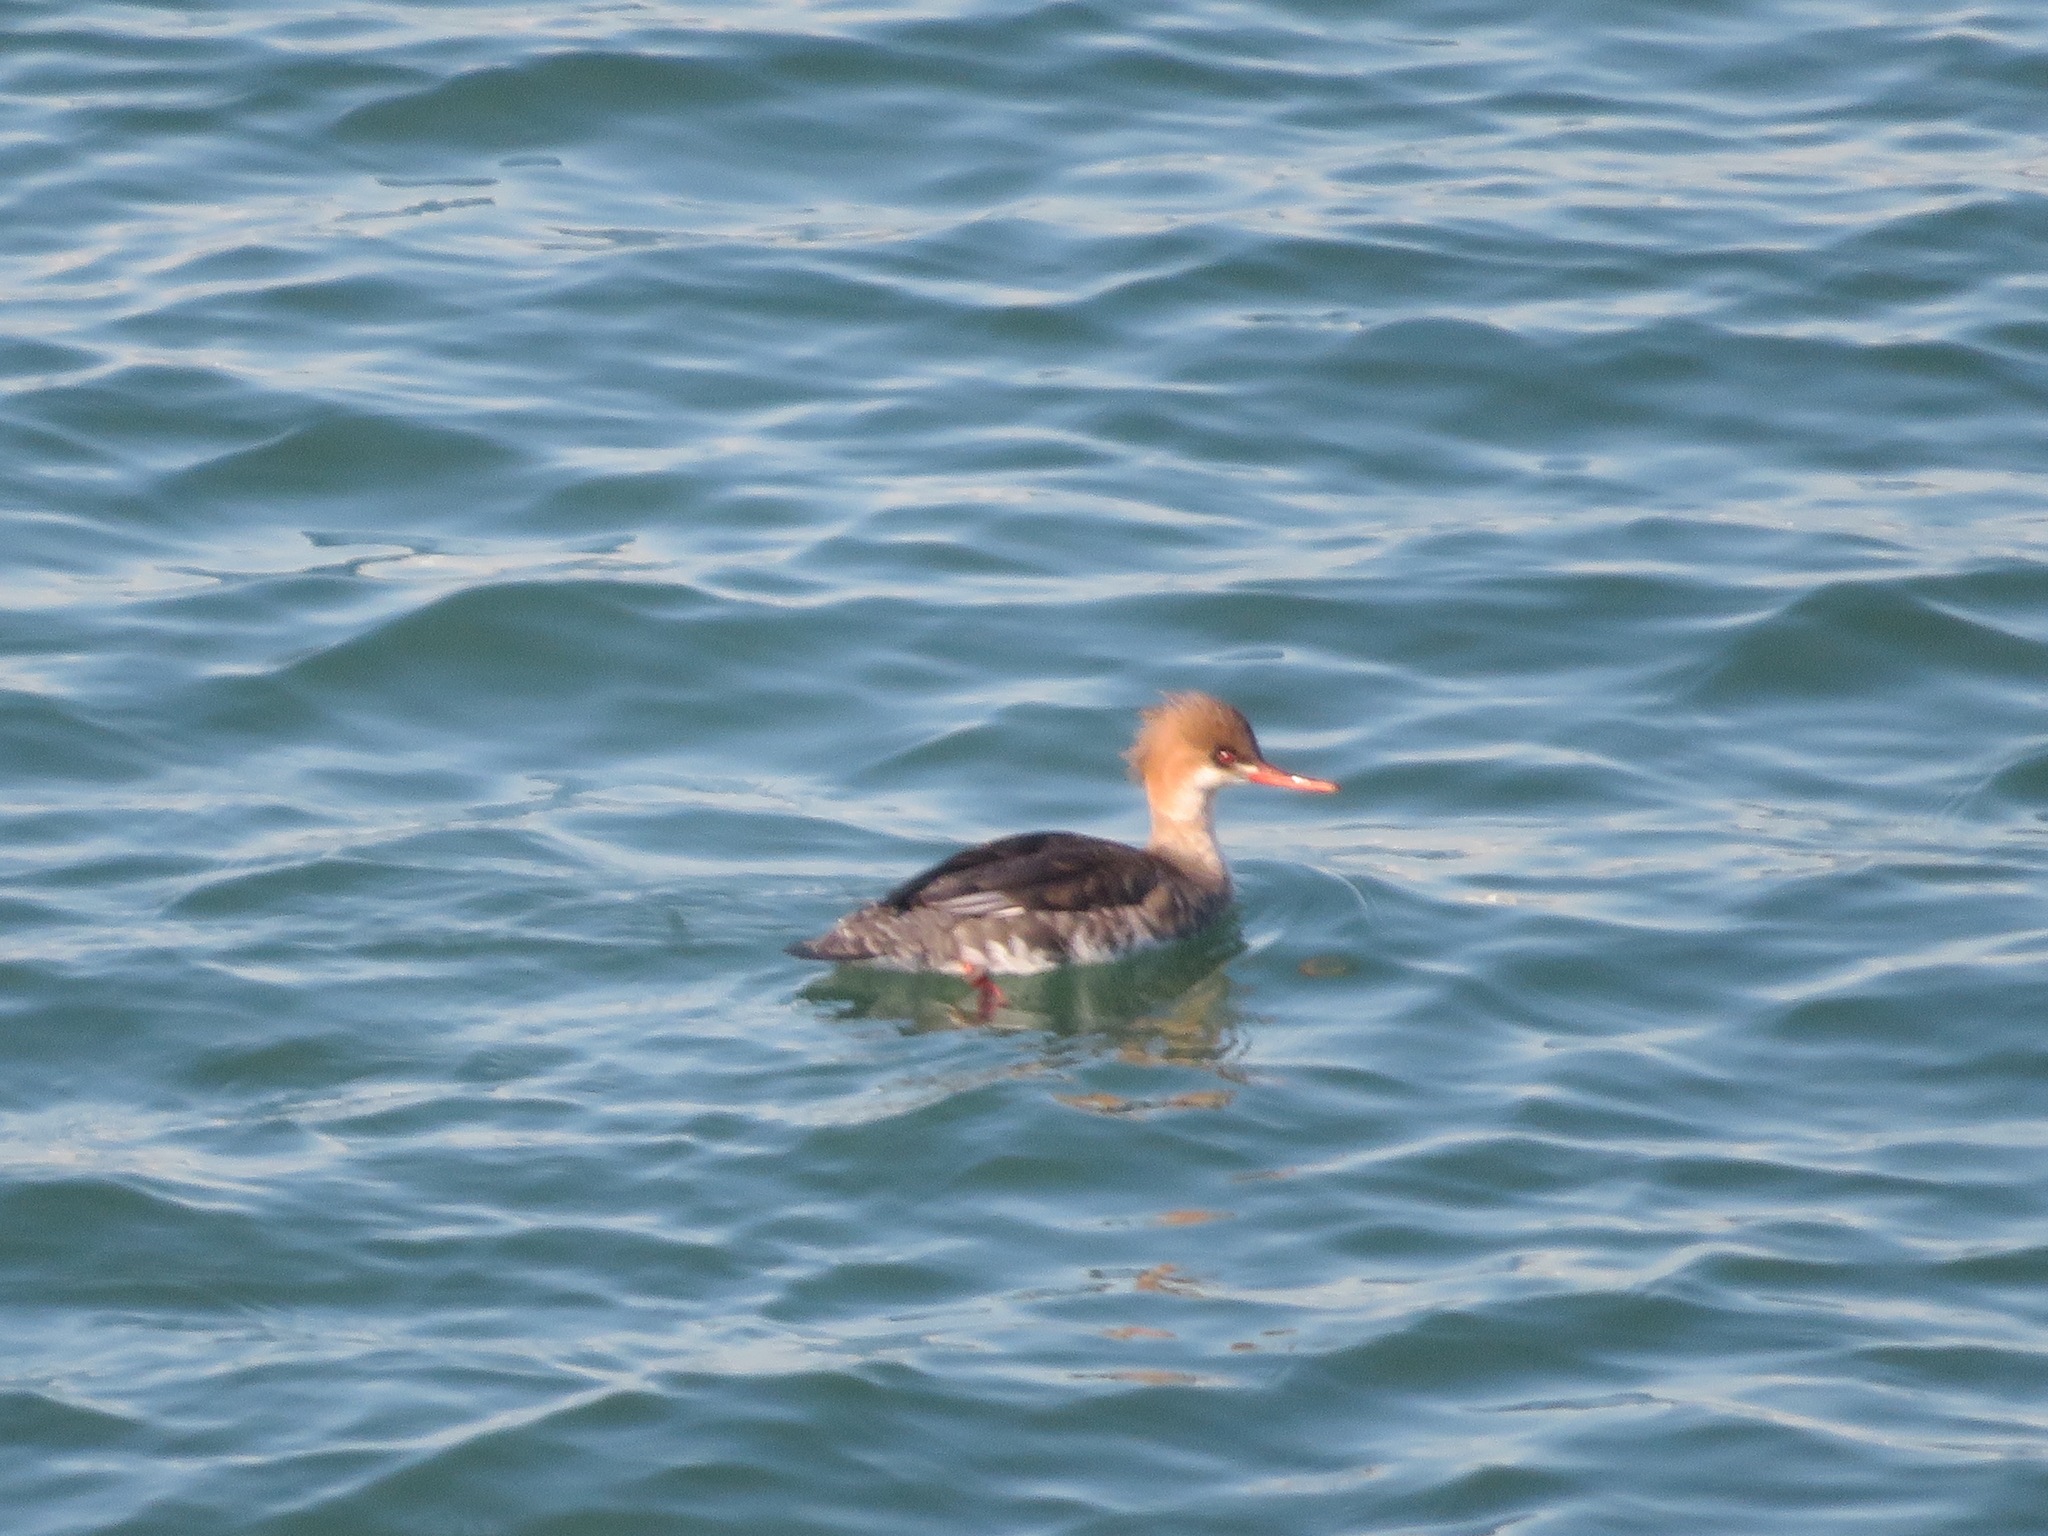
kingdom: Animalia
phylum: Chordata
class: Aves
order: Anseriformes
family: Anatidae
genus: Mergus
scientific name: Mergus serrator
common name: Red-breasted merganser
